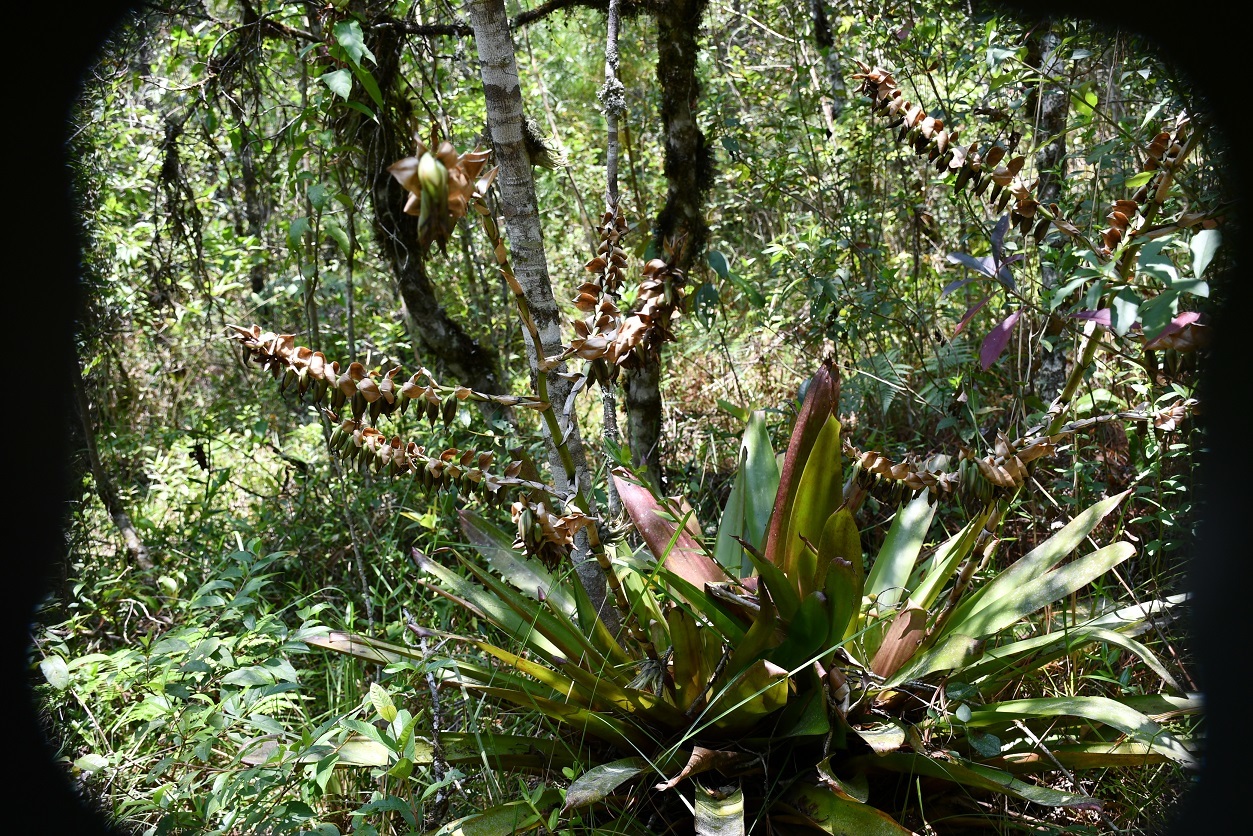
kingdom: Plantae
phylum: Tracheophyta
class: Liliopsida
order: Poales
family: Bromeliaceae
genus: Werauhia
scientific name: Werauhia werckleana
